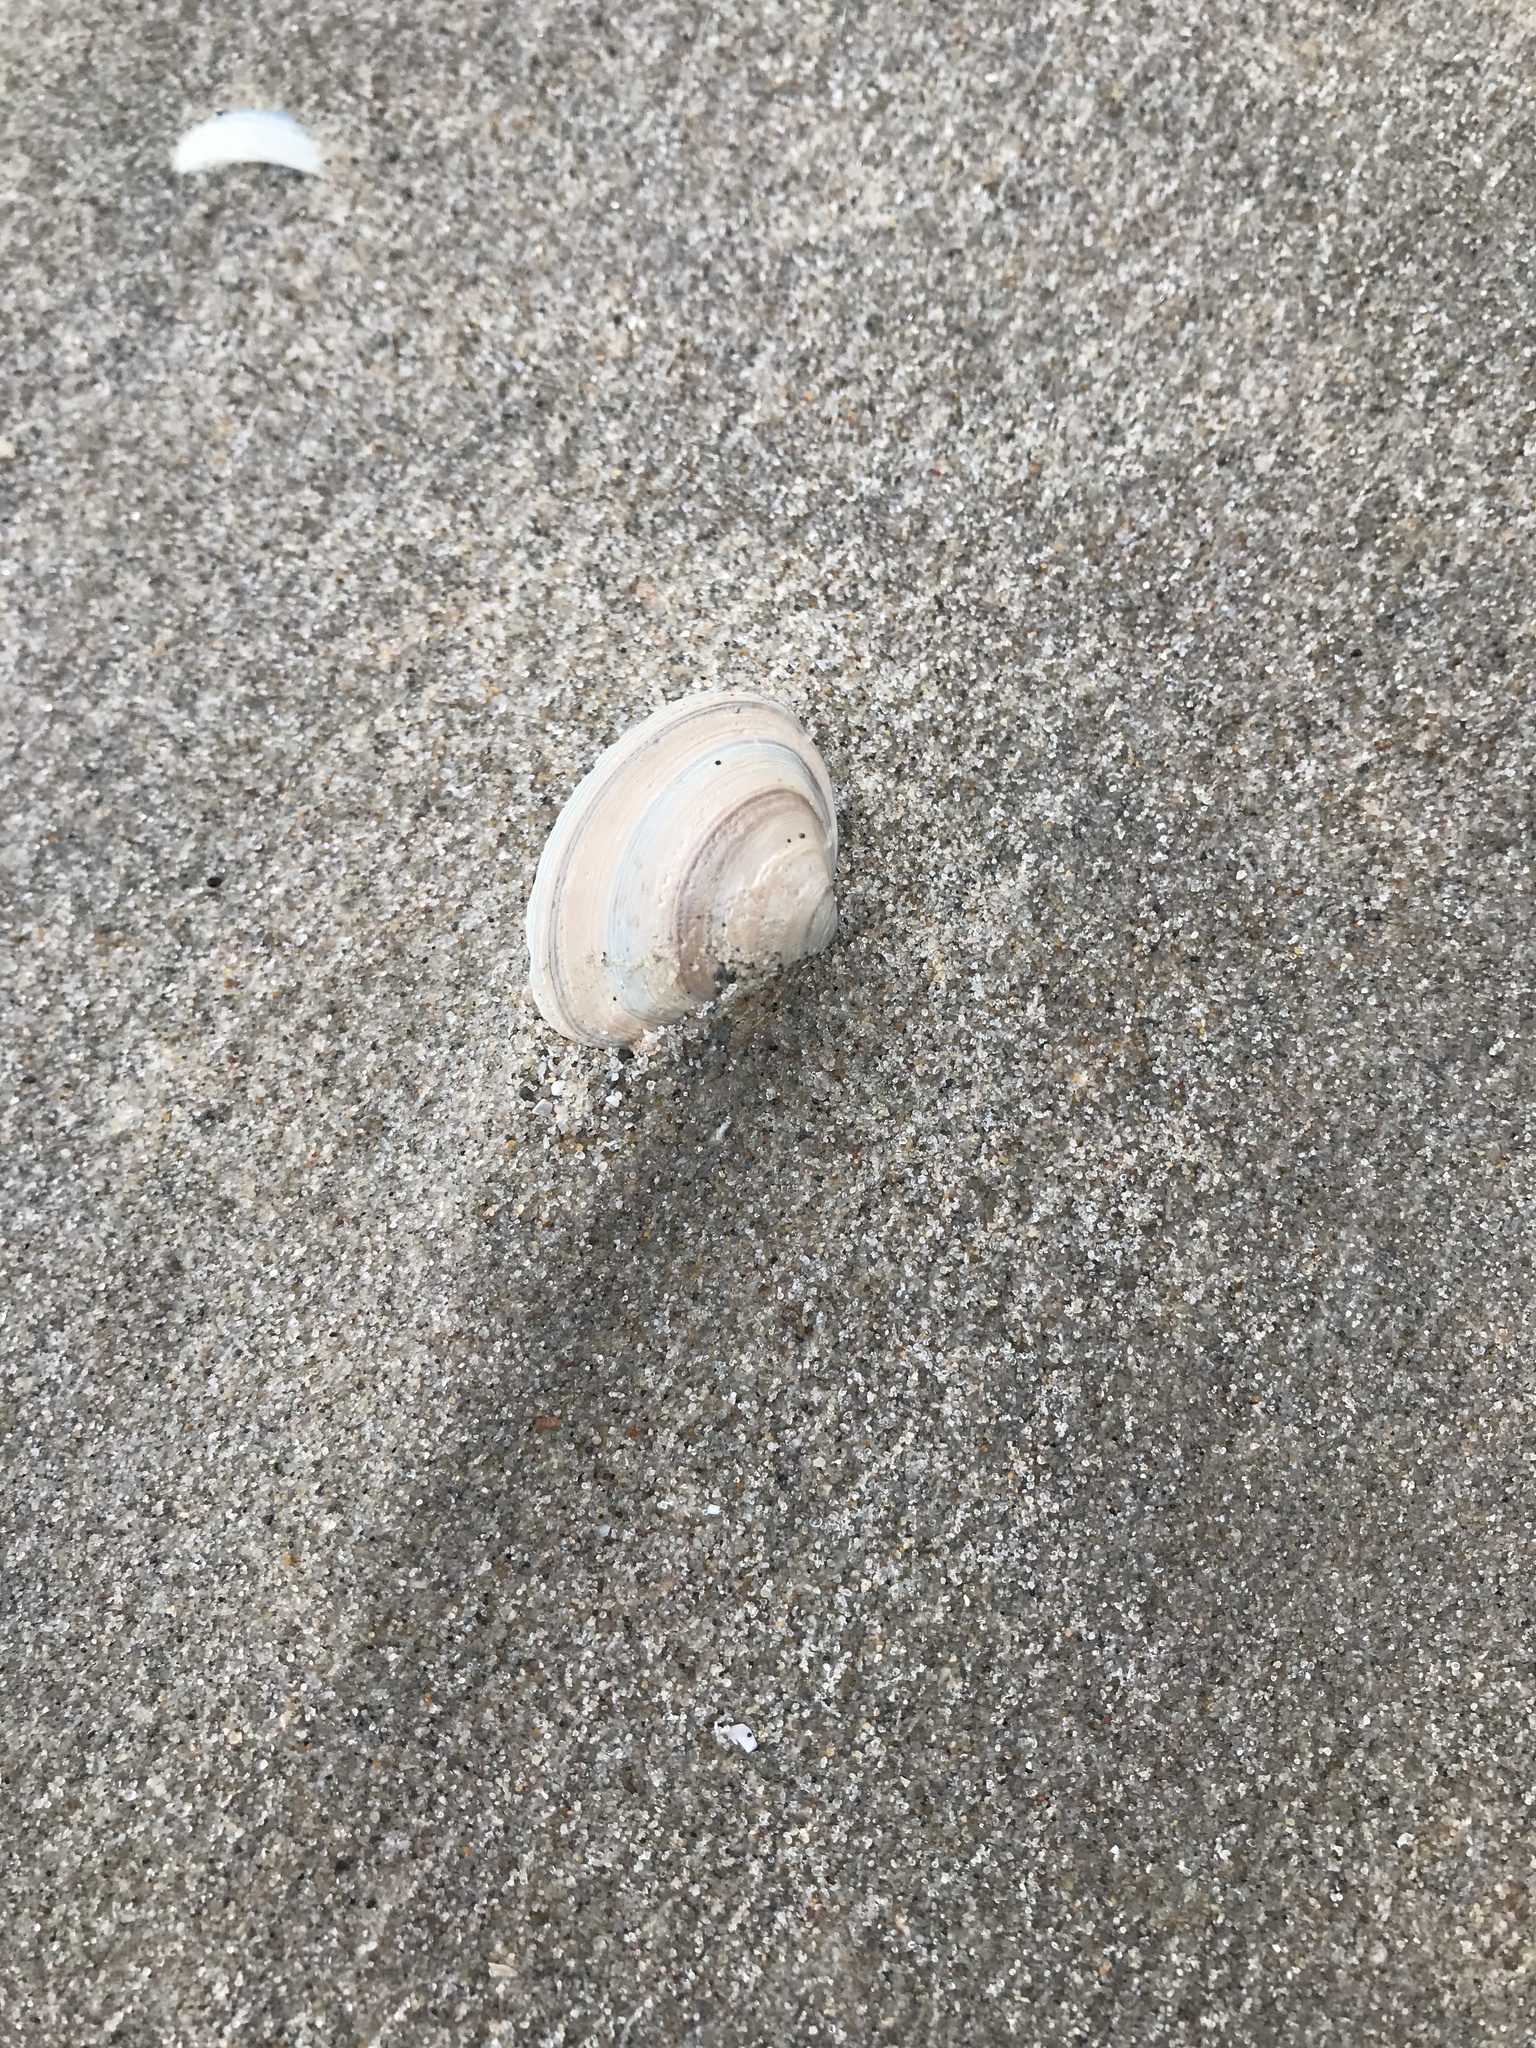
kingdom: Animalia
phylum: Mollusca
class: Bivalvia
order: Venerida
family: Mactridae
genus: Spisula
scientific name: Spisula elliptica
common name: Elliptic trough shell
